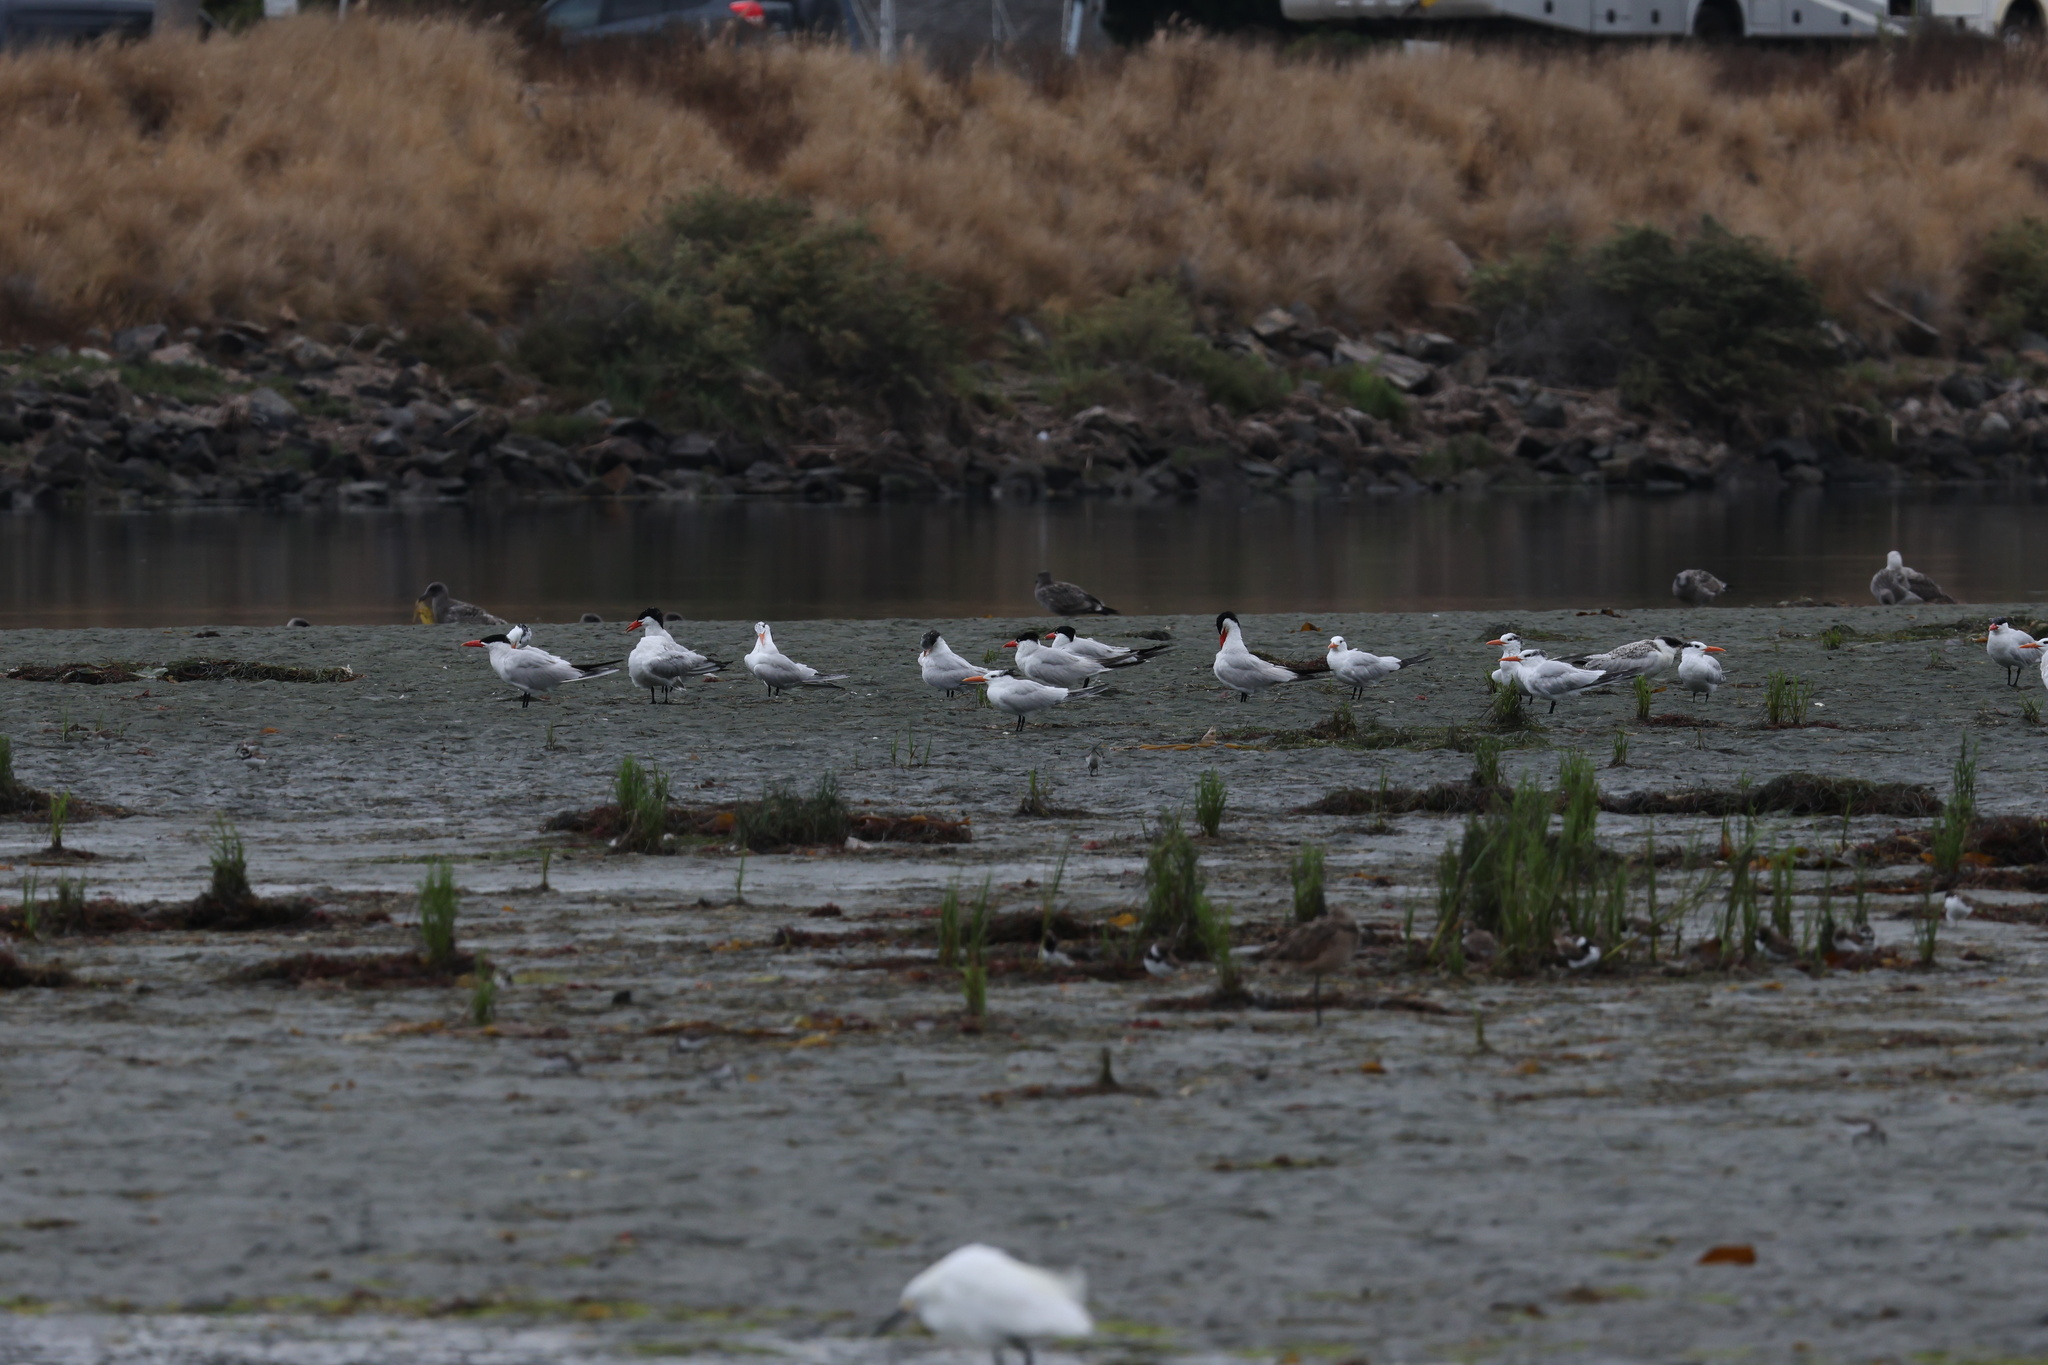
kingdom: Animalia
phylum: Chordata
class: Aves
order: Charadriiformes
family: Laridae
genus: Thalasseus
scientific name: Thalasseus maximus
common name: Royal tern
